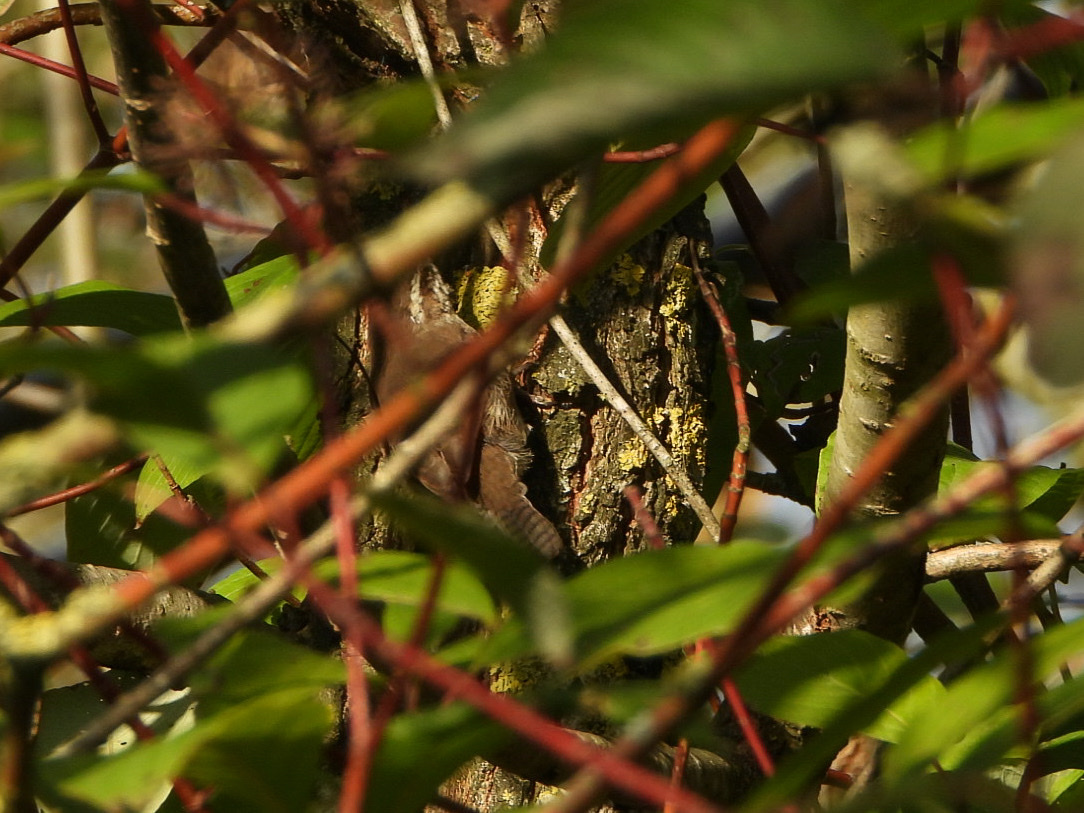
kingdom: Animalia
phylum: Chordata
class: Aves
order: Passeriformes
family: Troglodytidae
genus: Thryomanes
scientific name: Thryomanes bewickii
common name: Bewick's wren
